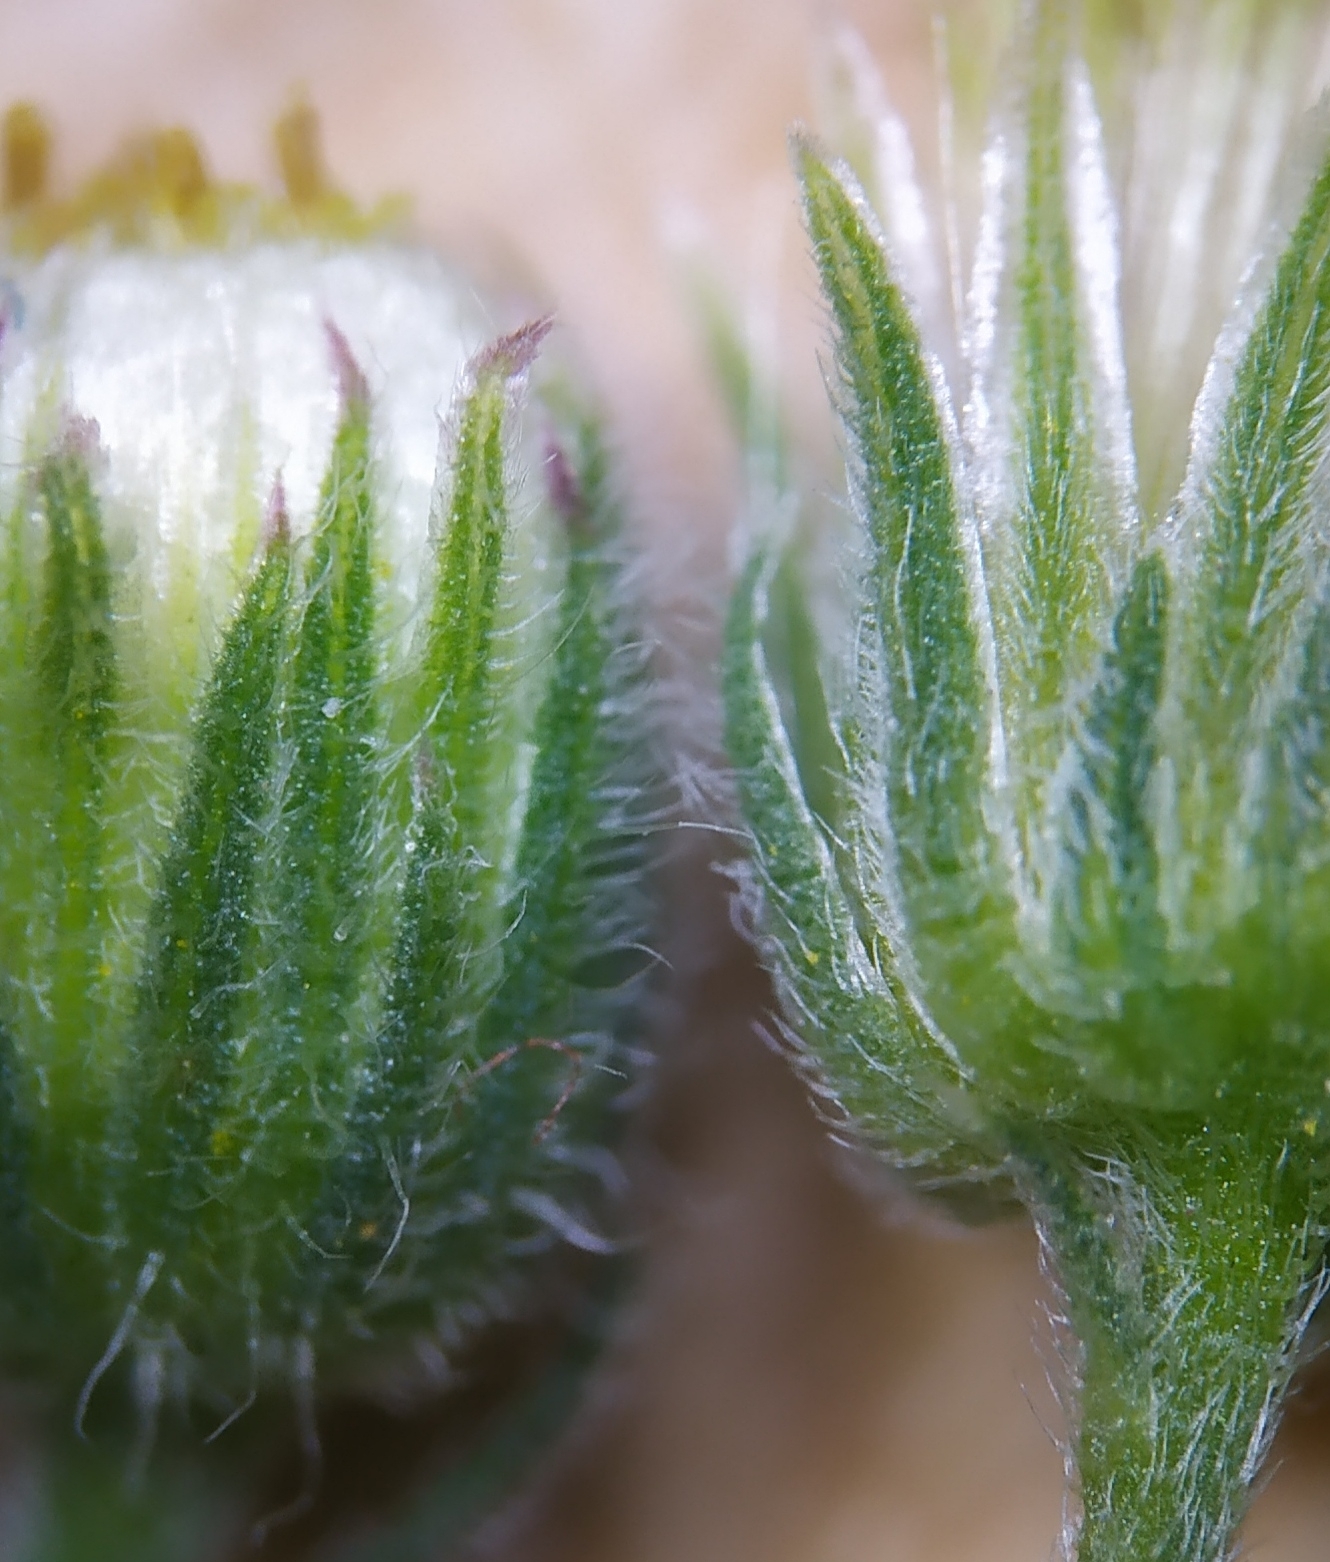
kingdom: Plantae
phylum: Tracheophyta
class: Magnoliopsida
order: Asterales
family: Asteraceae
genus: Erigeron
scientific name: Erigeron bonariensis
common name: Argentine fleabane
